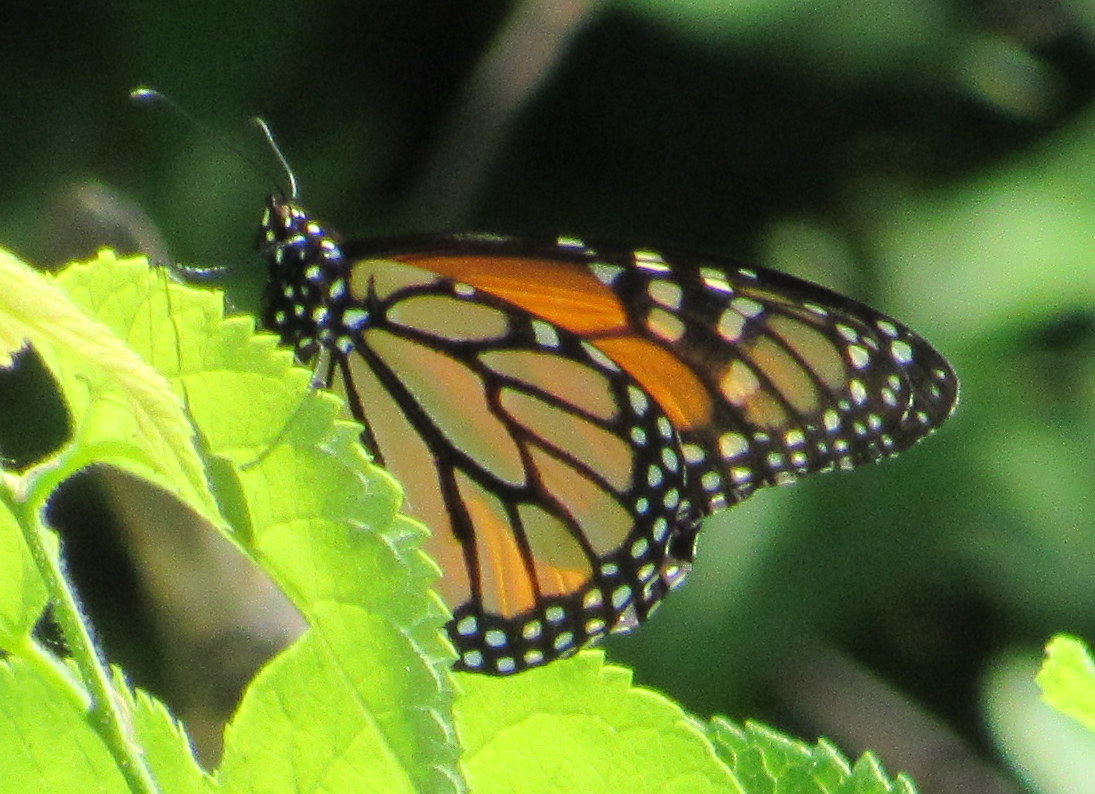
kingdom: Animalia
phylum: Arthropoda
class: Insecta
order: Lepidoptera
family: Nymphalidae
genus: Danaus
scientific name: Danaus plexippus
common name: Monarch
